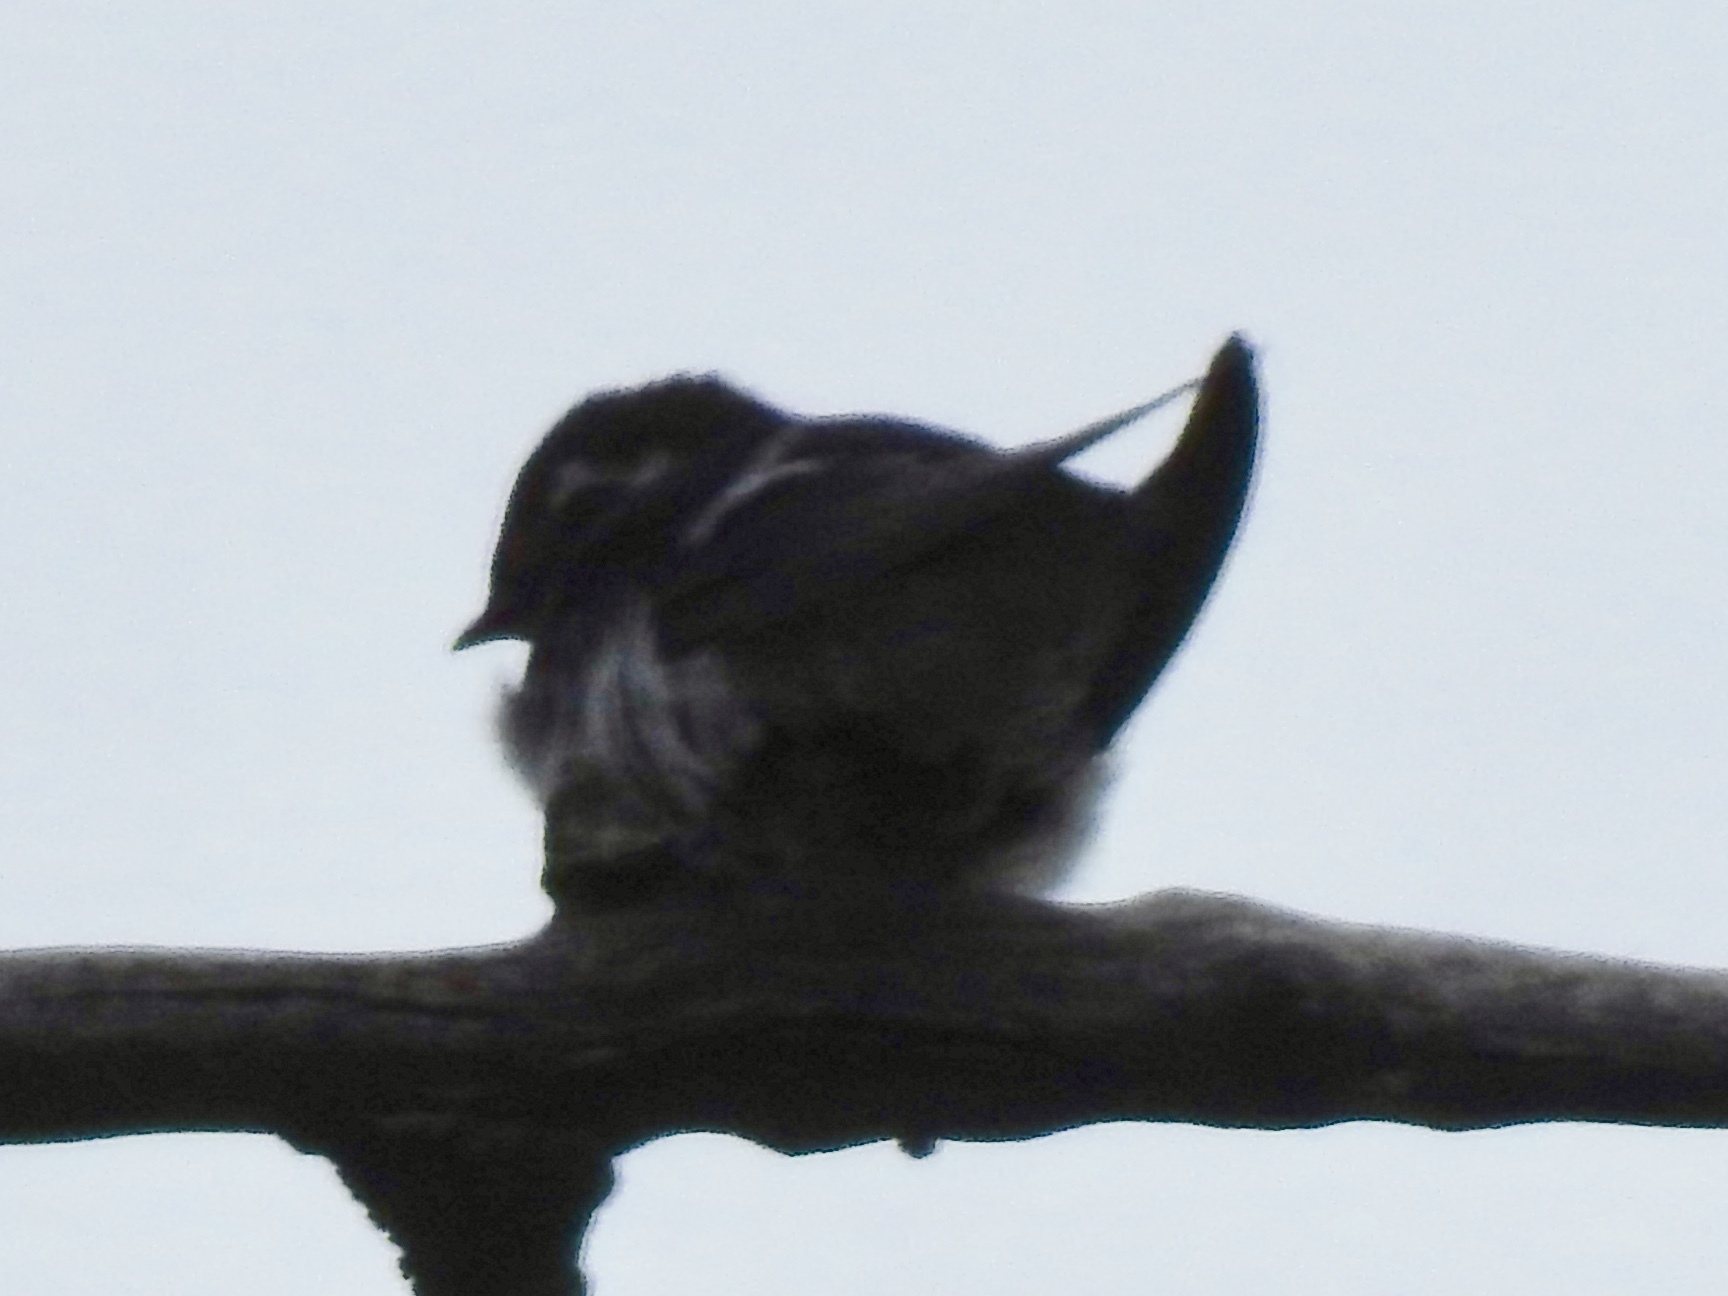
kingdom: Animalia
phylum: Chordata
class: Aves
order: Passeriformes
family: Hirundinidae
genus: Tachycineta
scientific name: Tachycineta thalassina
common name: Violet-green swallow
